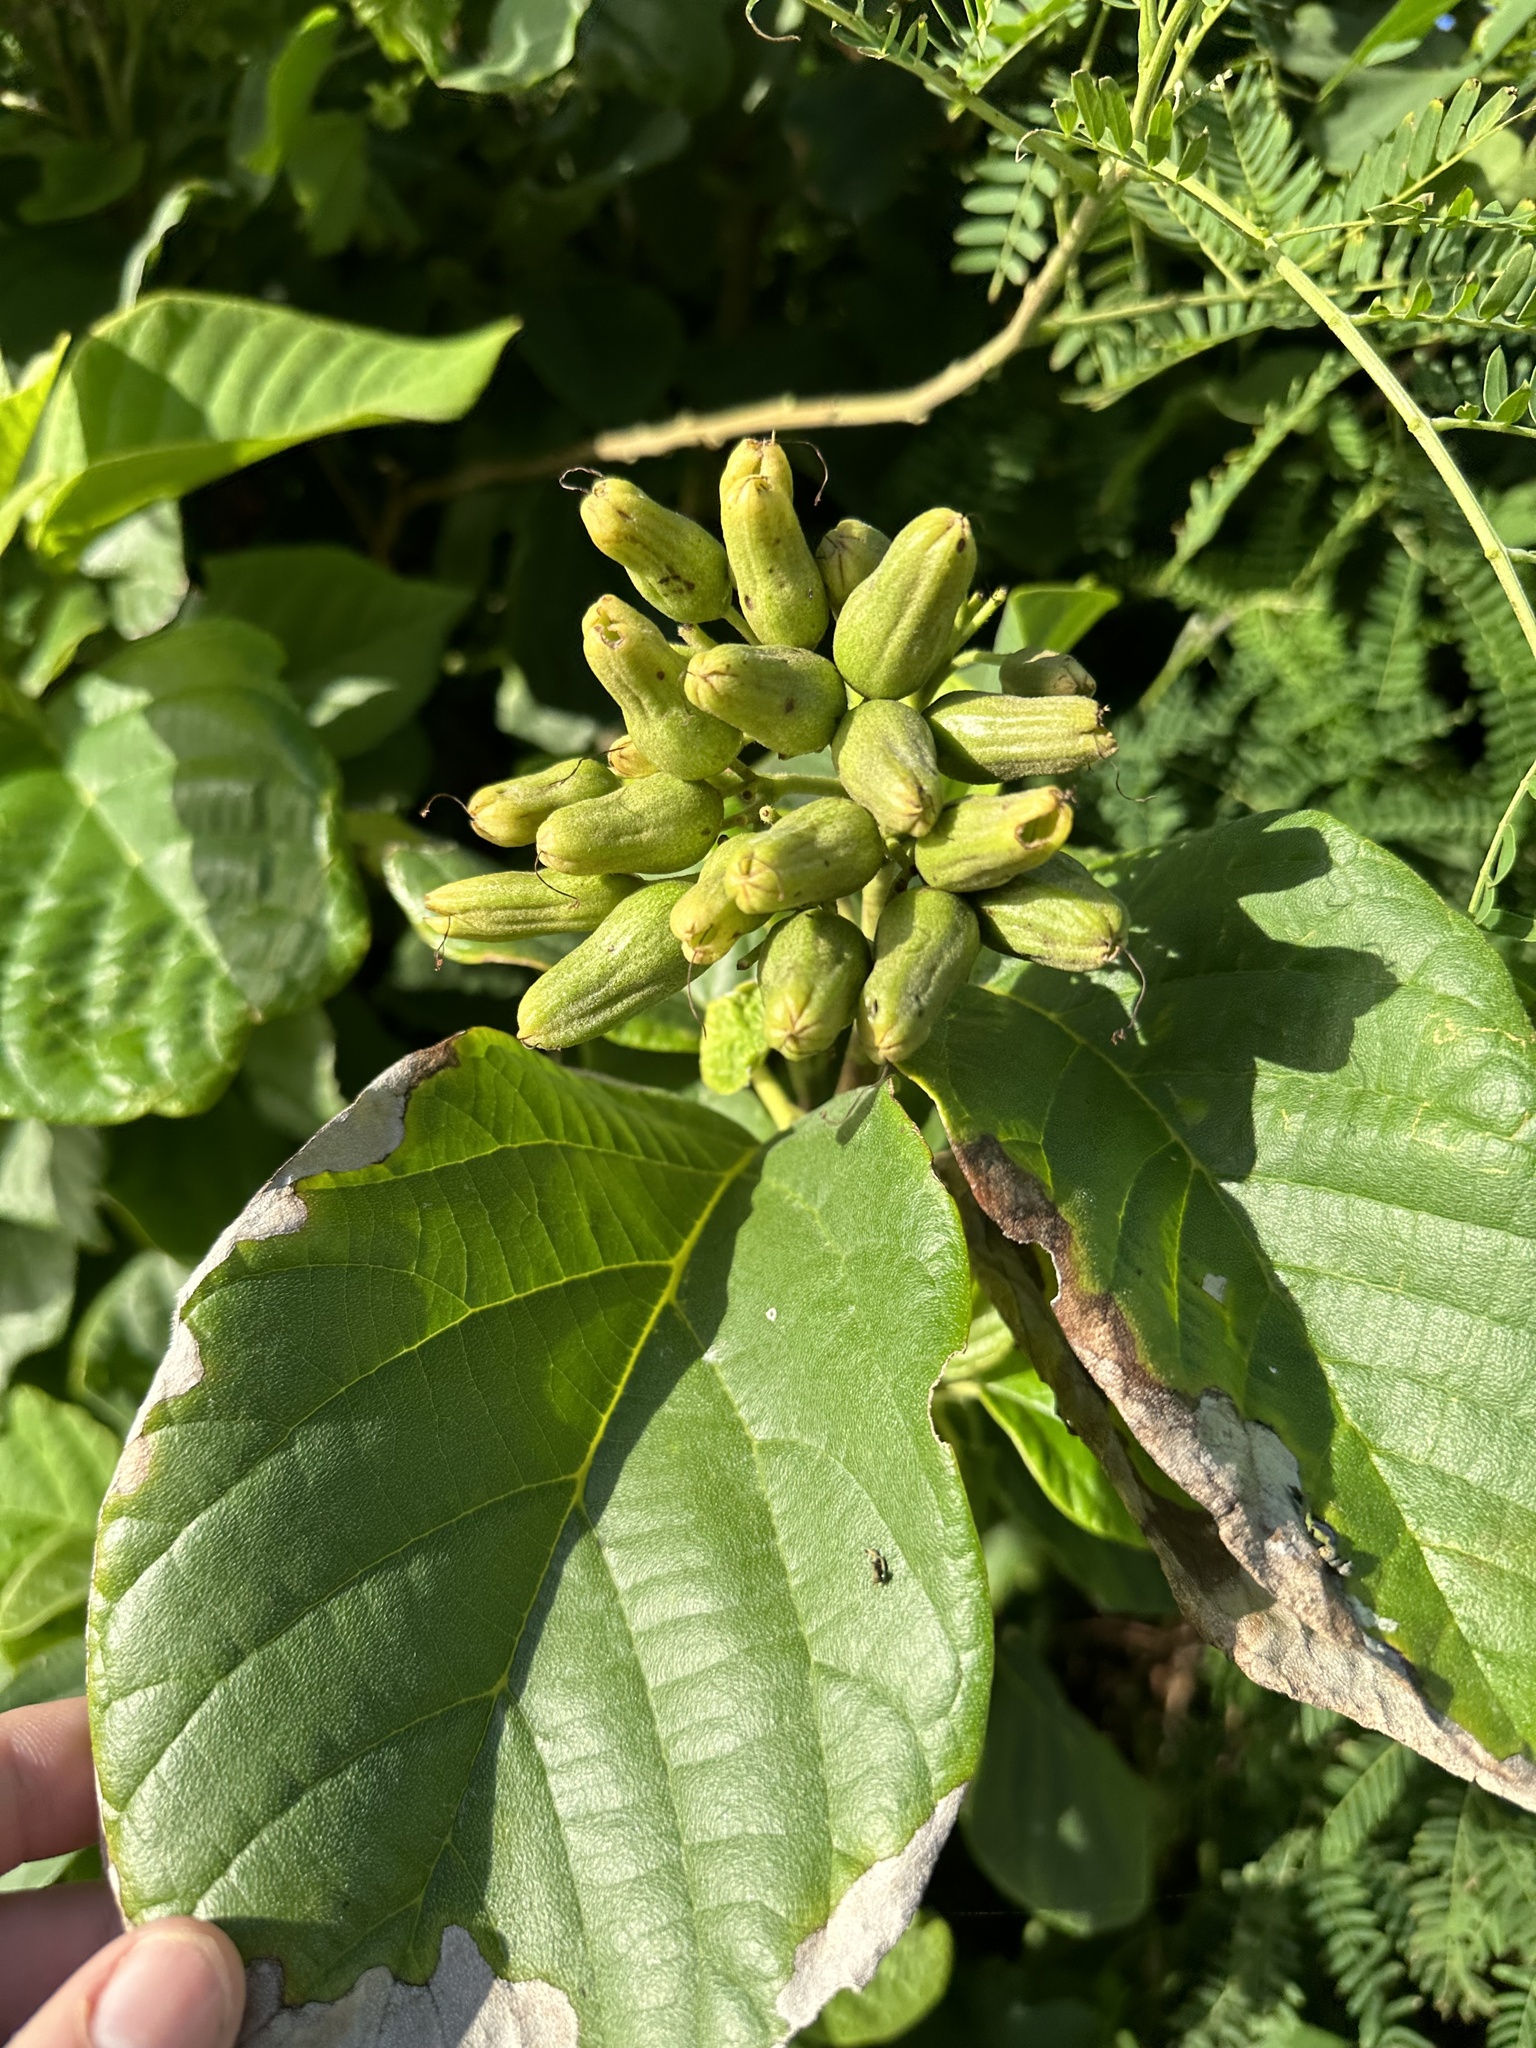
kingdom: Plantae
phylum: Tracheophyta
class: Magnoliopsida
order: Boraginales
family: Cordiaceae
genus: Cordia
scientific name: Cordia sebestena
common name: Largeleaf geigertree
